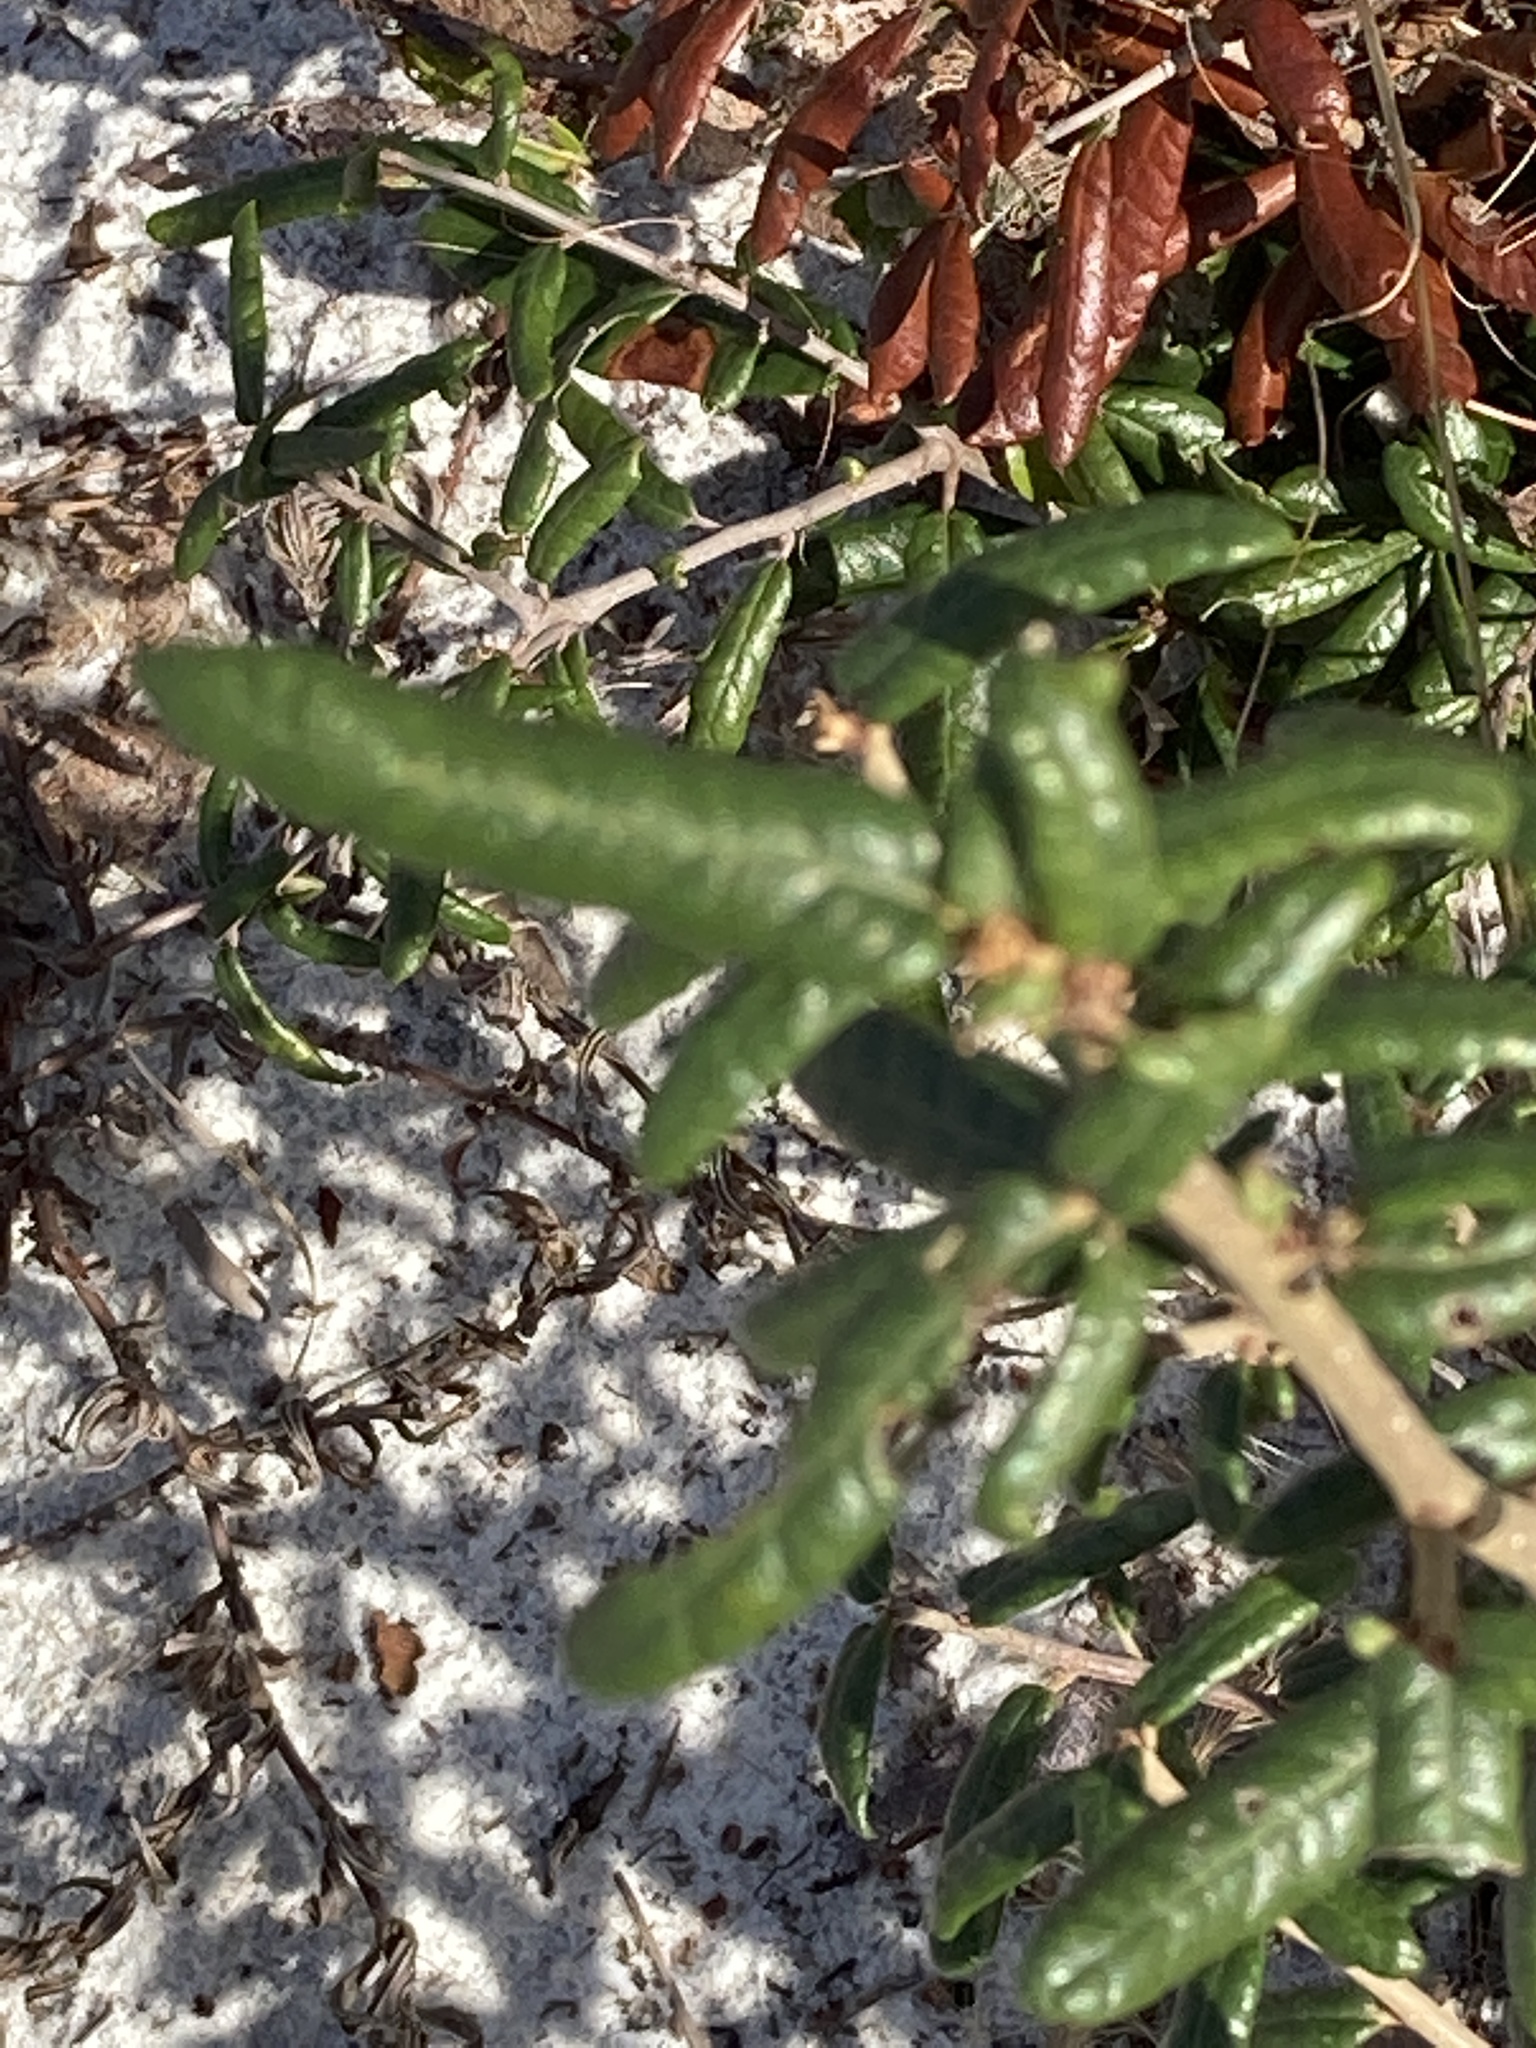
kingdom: Plantae
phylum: Tracheophyta
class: Magnoliopsida
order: Fagales
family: Fagaceae
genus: Quercus
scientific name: Quercus geminata
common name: Sand live oak
